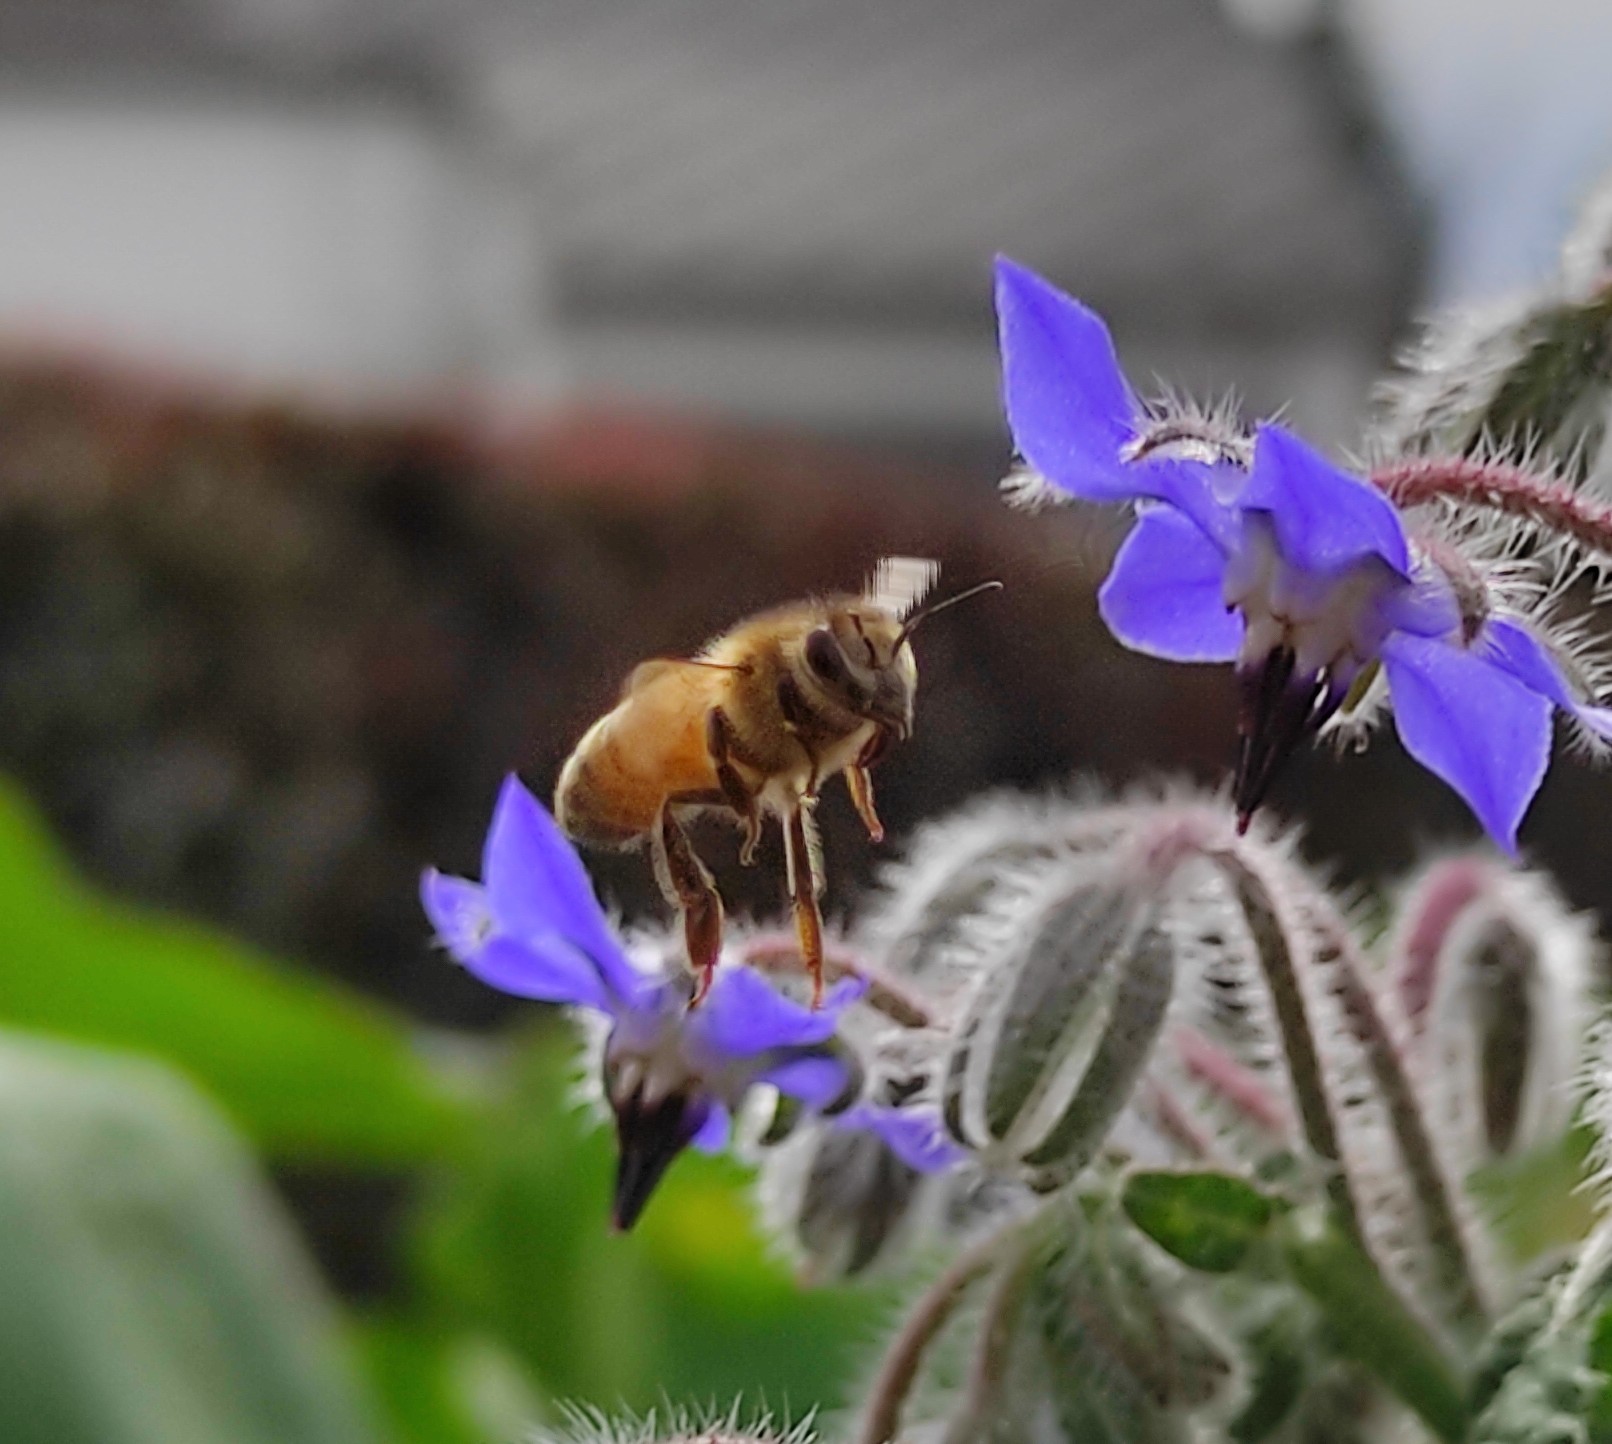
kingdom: Animalia
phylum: Arthropoda
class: Insecta
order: Hymenoptera
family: Apidae
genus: Apis
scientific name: Apis mellifera
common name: Honey bee
